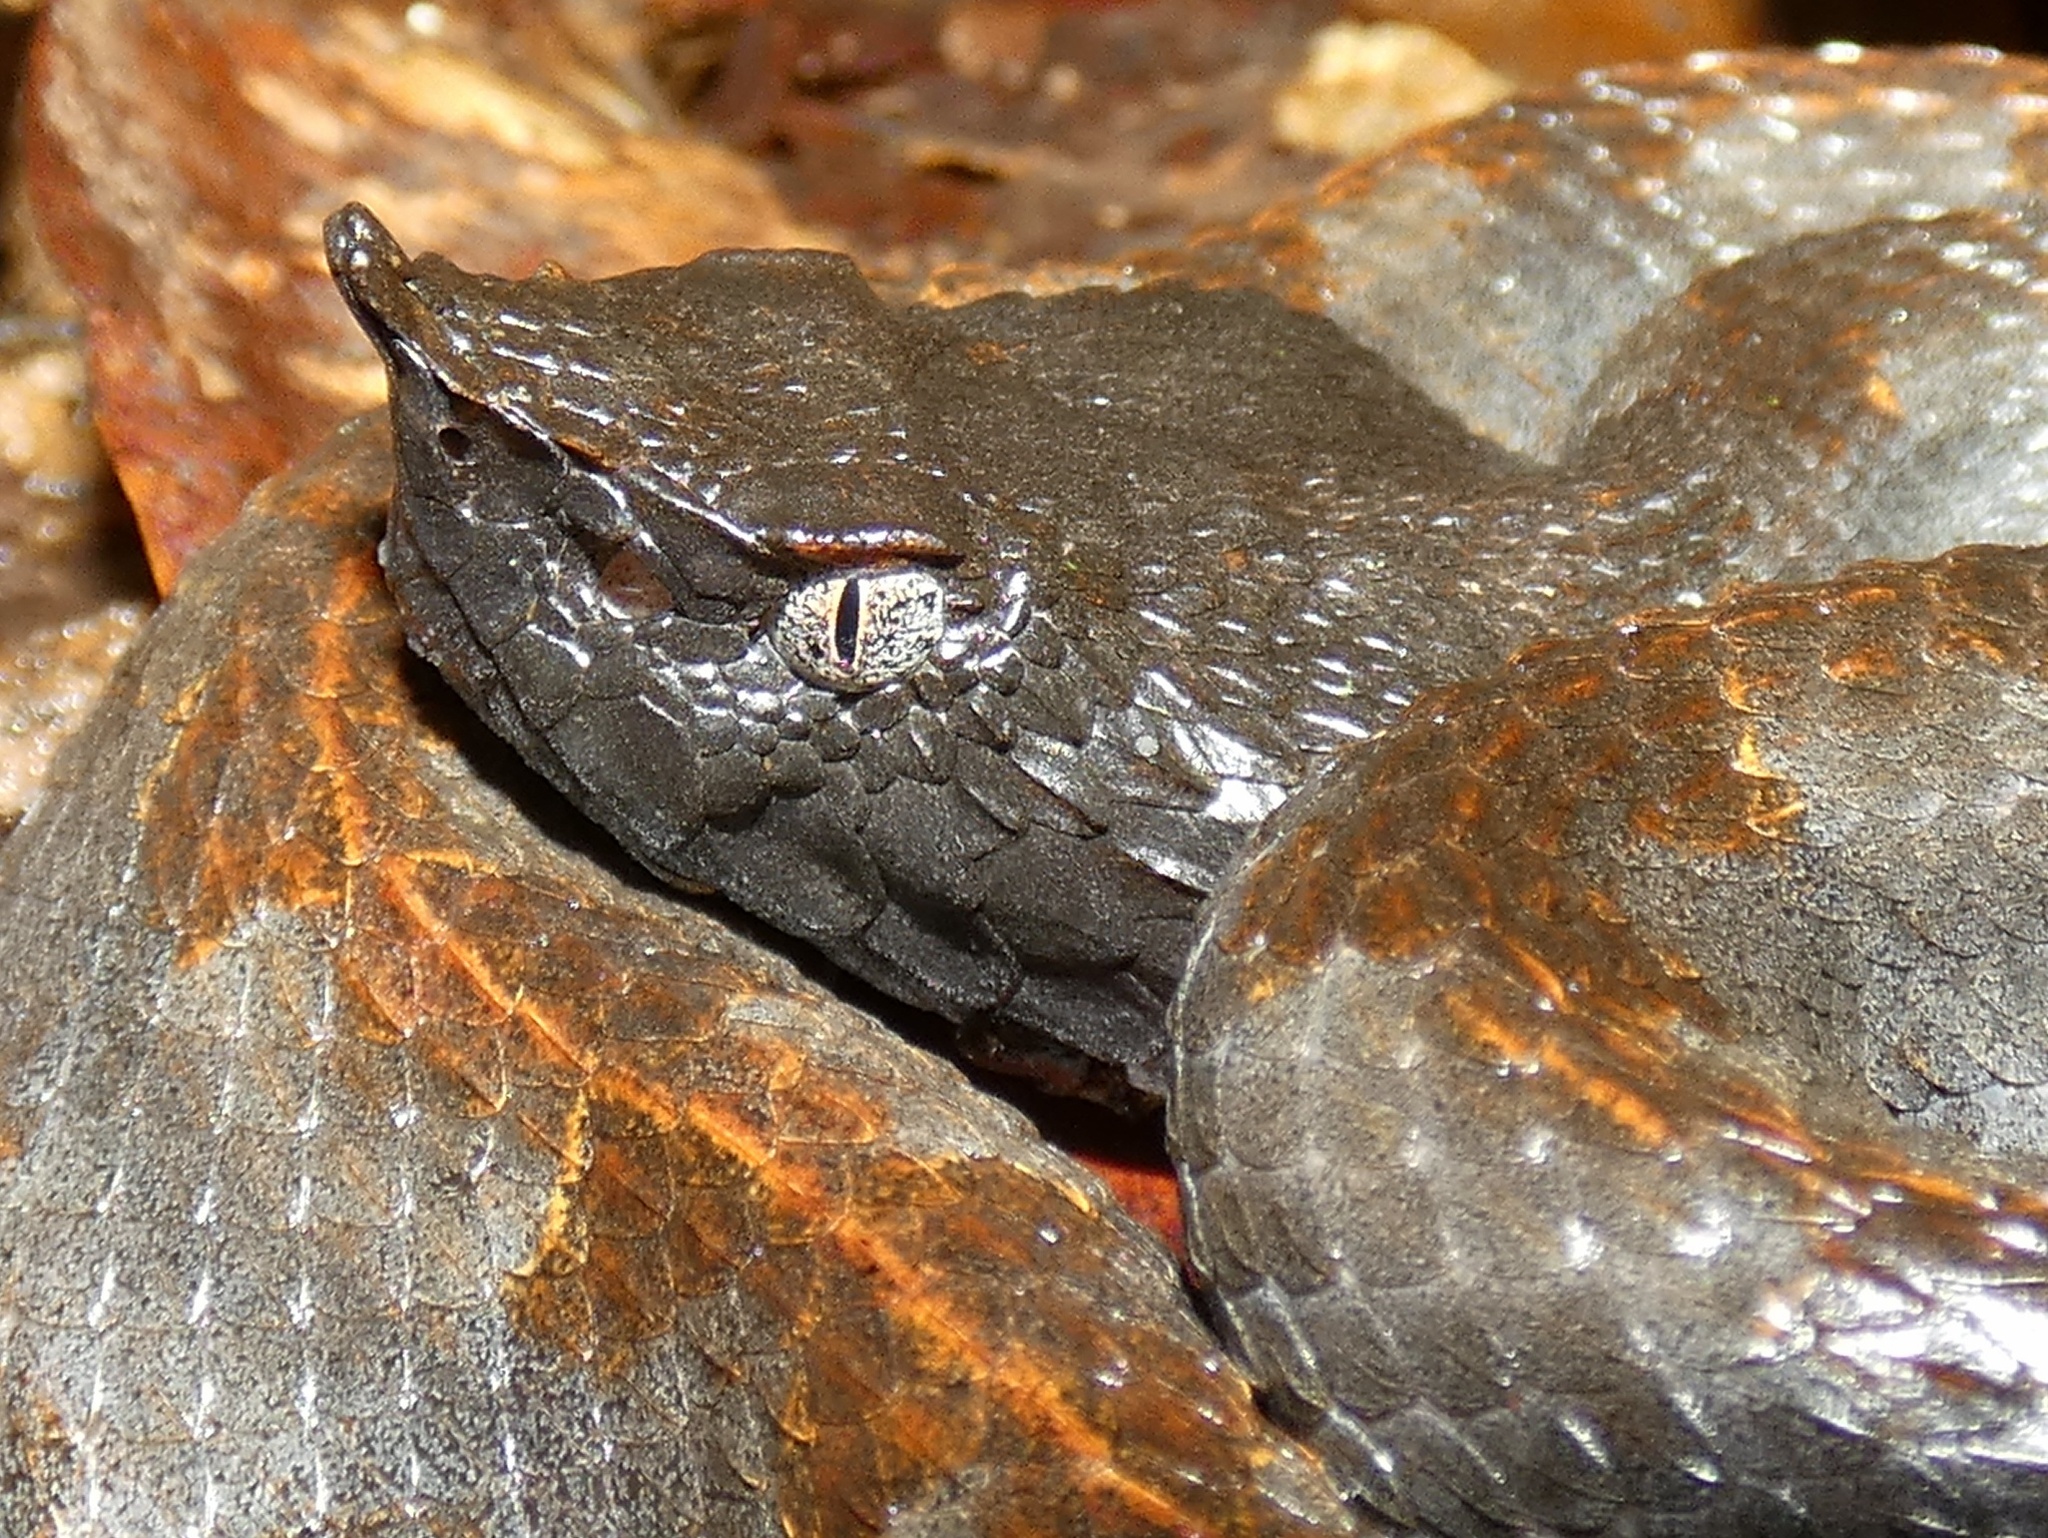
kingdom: Animalia
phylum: Chordata
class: Squamata
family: Viperidae
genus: Porthidium
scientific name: Porthidium nasutum
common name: Hognosed pit viper
